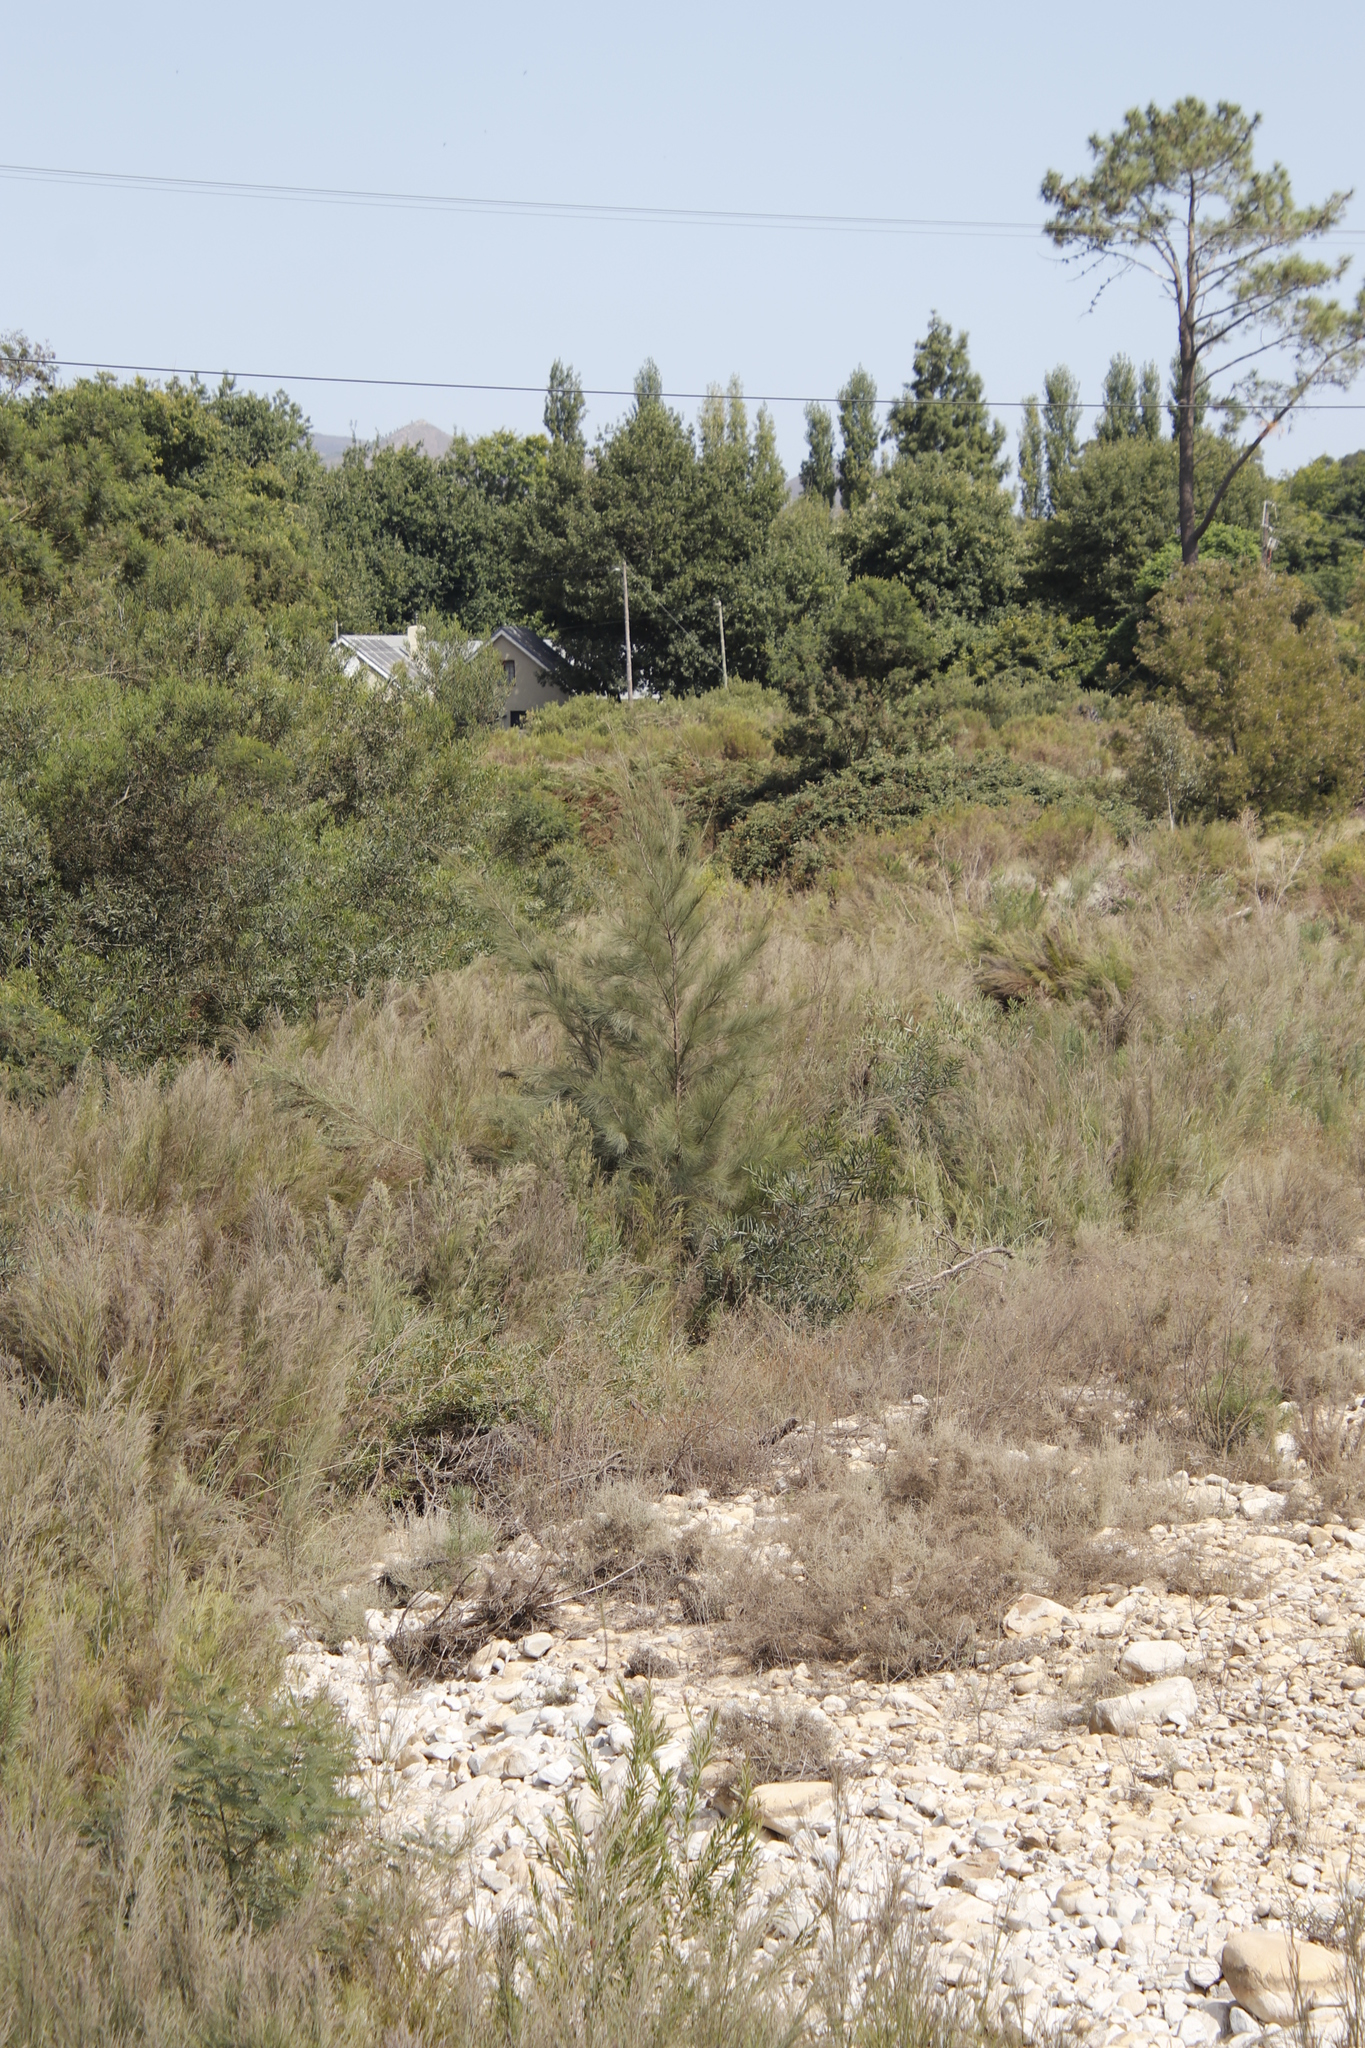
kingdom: Plantae
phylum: Tracheophyta
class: Magnoliopsida
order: Proteales
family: Proteaceae
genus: Hakea
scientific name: Hakea sericea
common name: Needle bush
